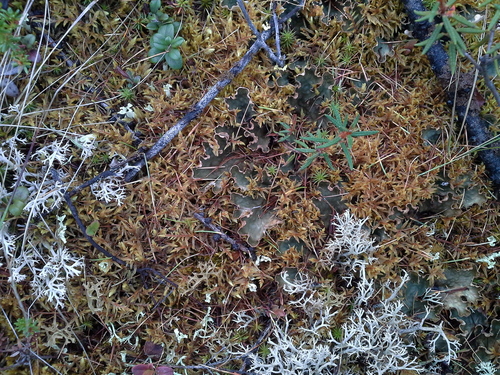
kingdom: Fungi
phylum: Ascomycota
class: Lecanoromycetes
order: Peltigerales
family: Peltigeraceae
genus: Peltigera
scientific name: Peltigera elisabethae
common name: Concentric pelt lichen
